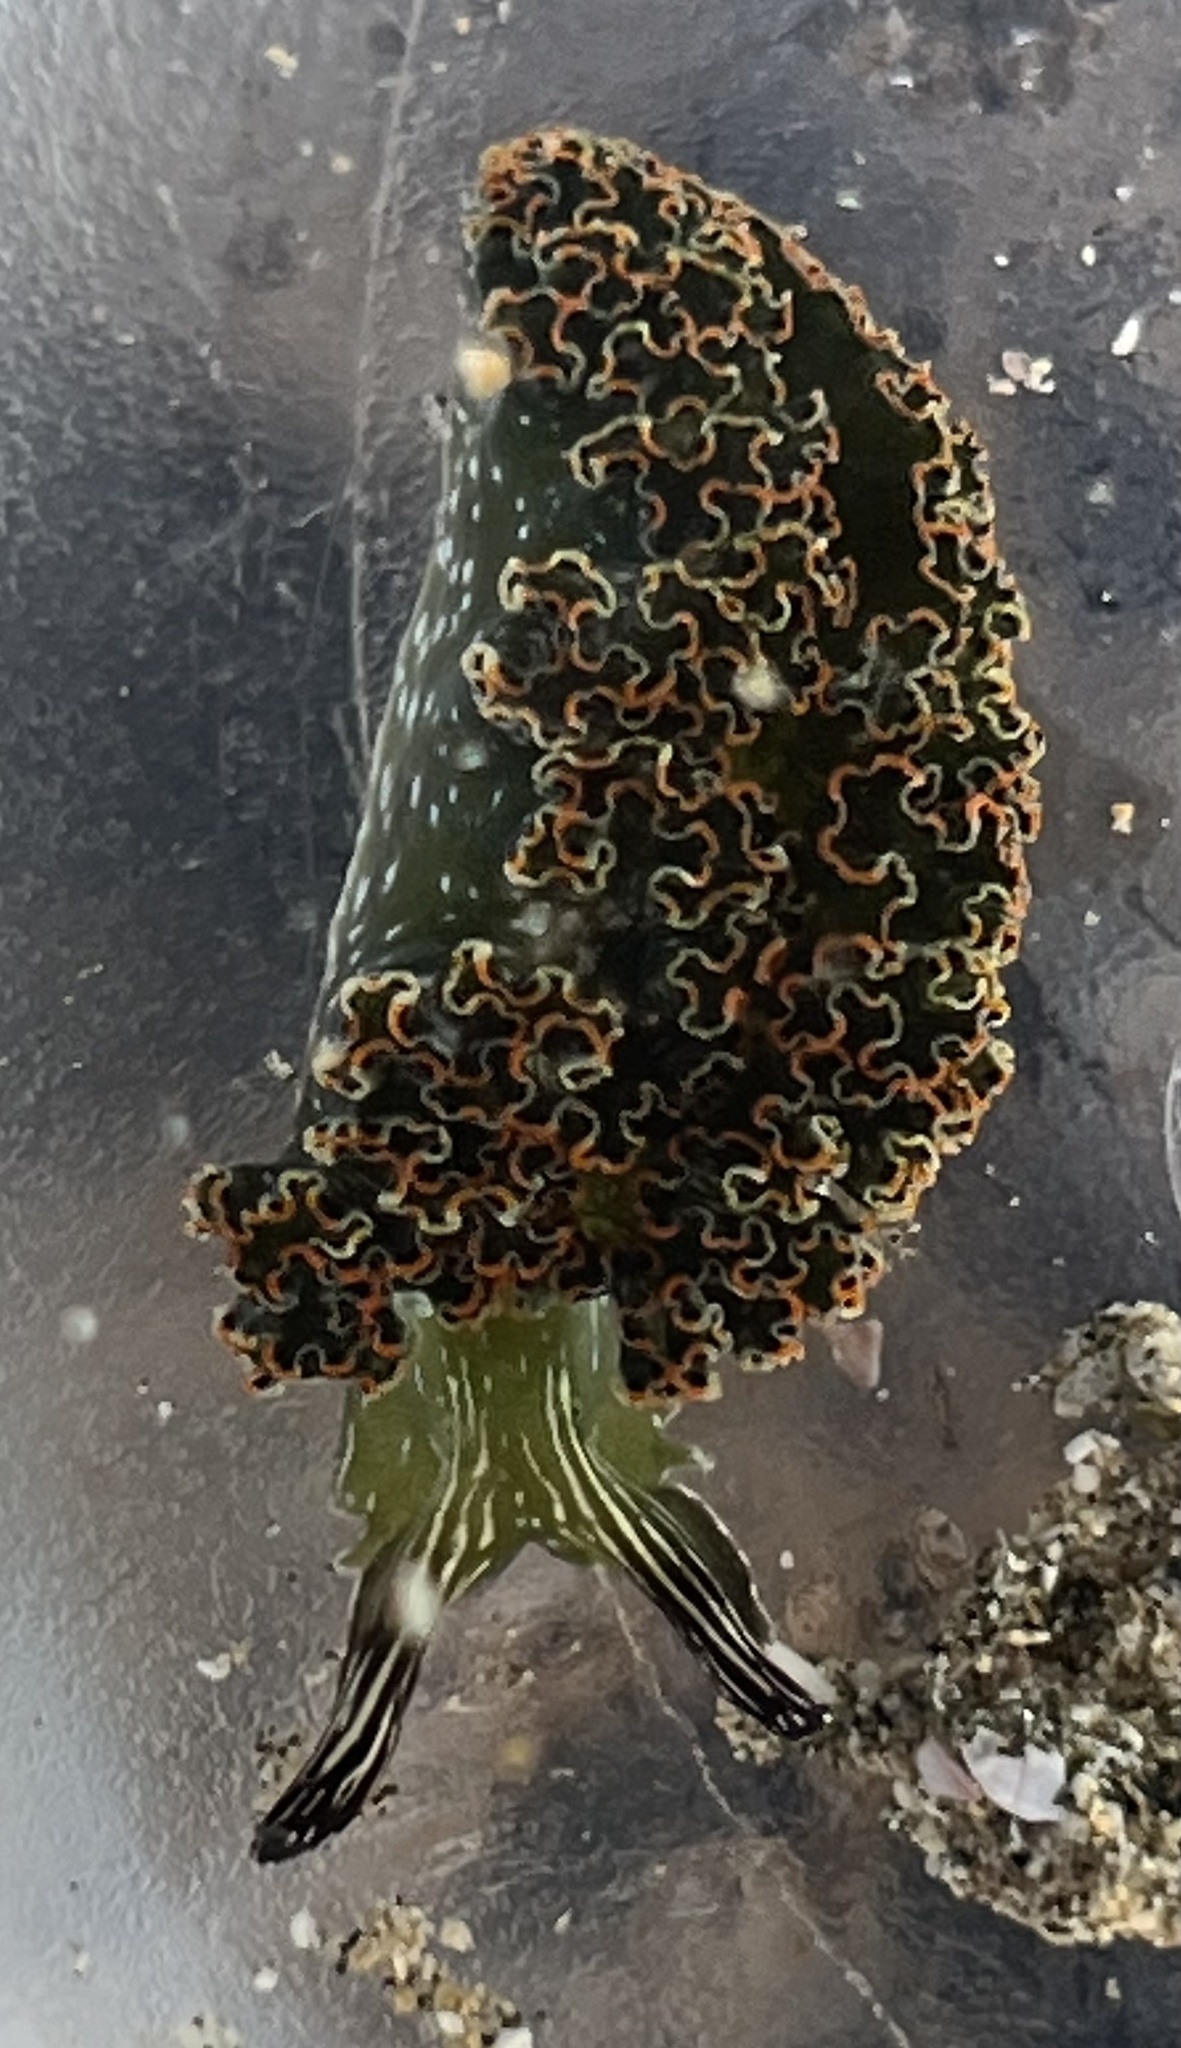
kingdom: Animalia
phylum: Mollusca
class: Gastropoda
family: Plakobranchidae
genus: Elysia
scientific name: Elysia diomedea
